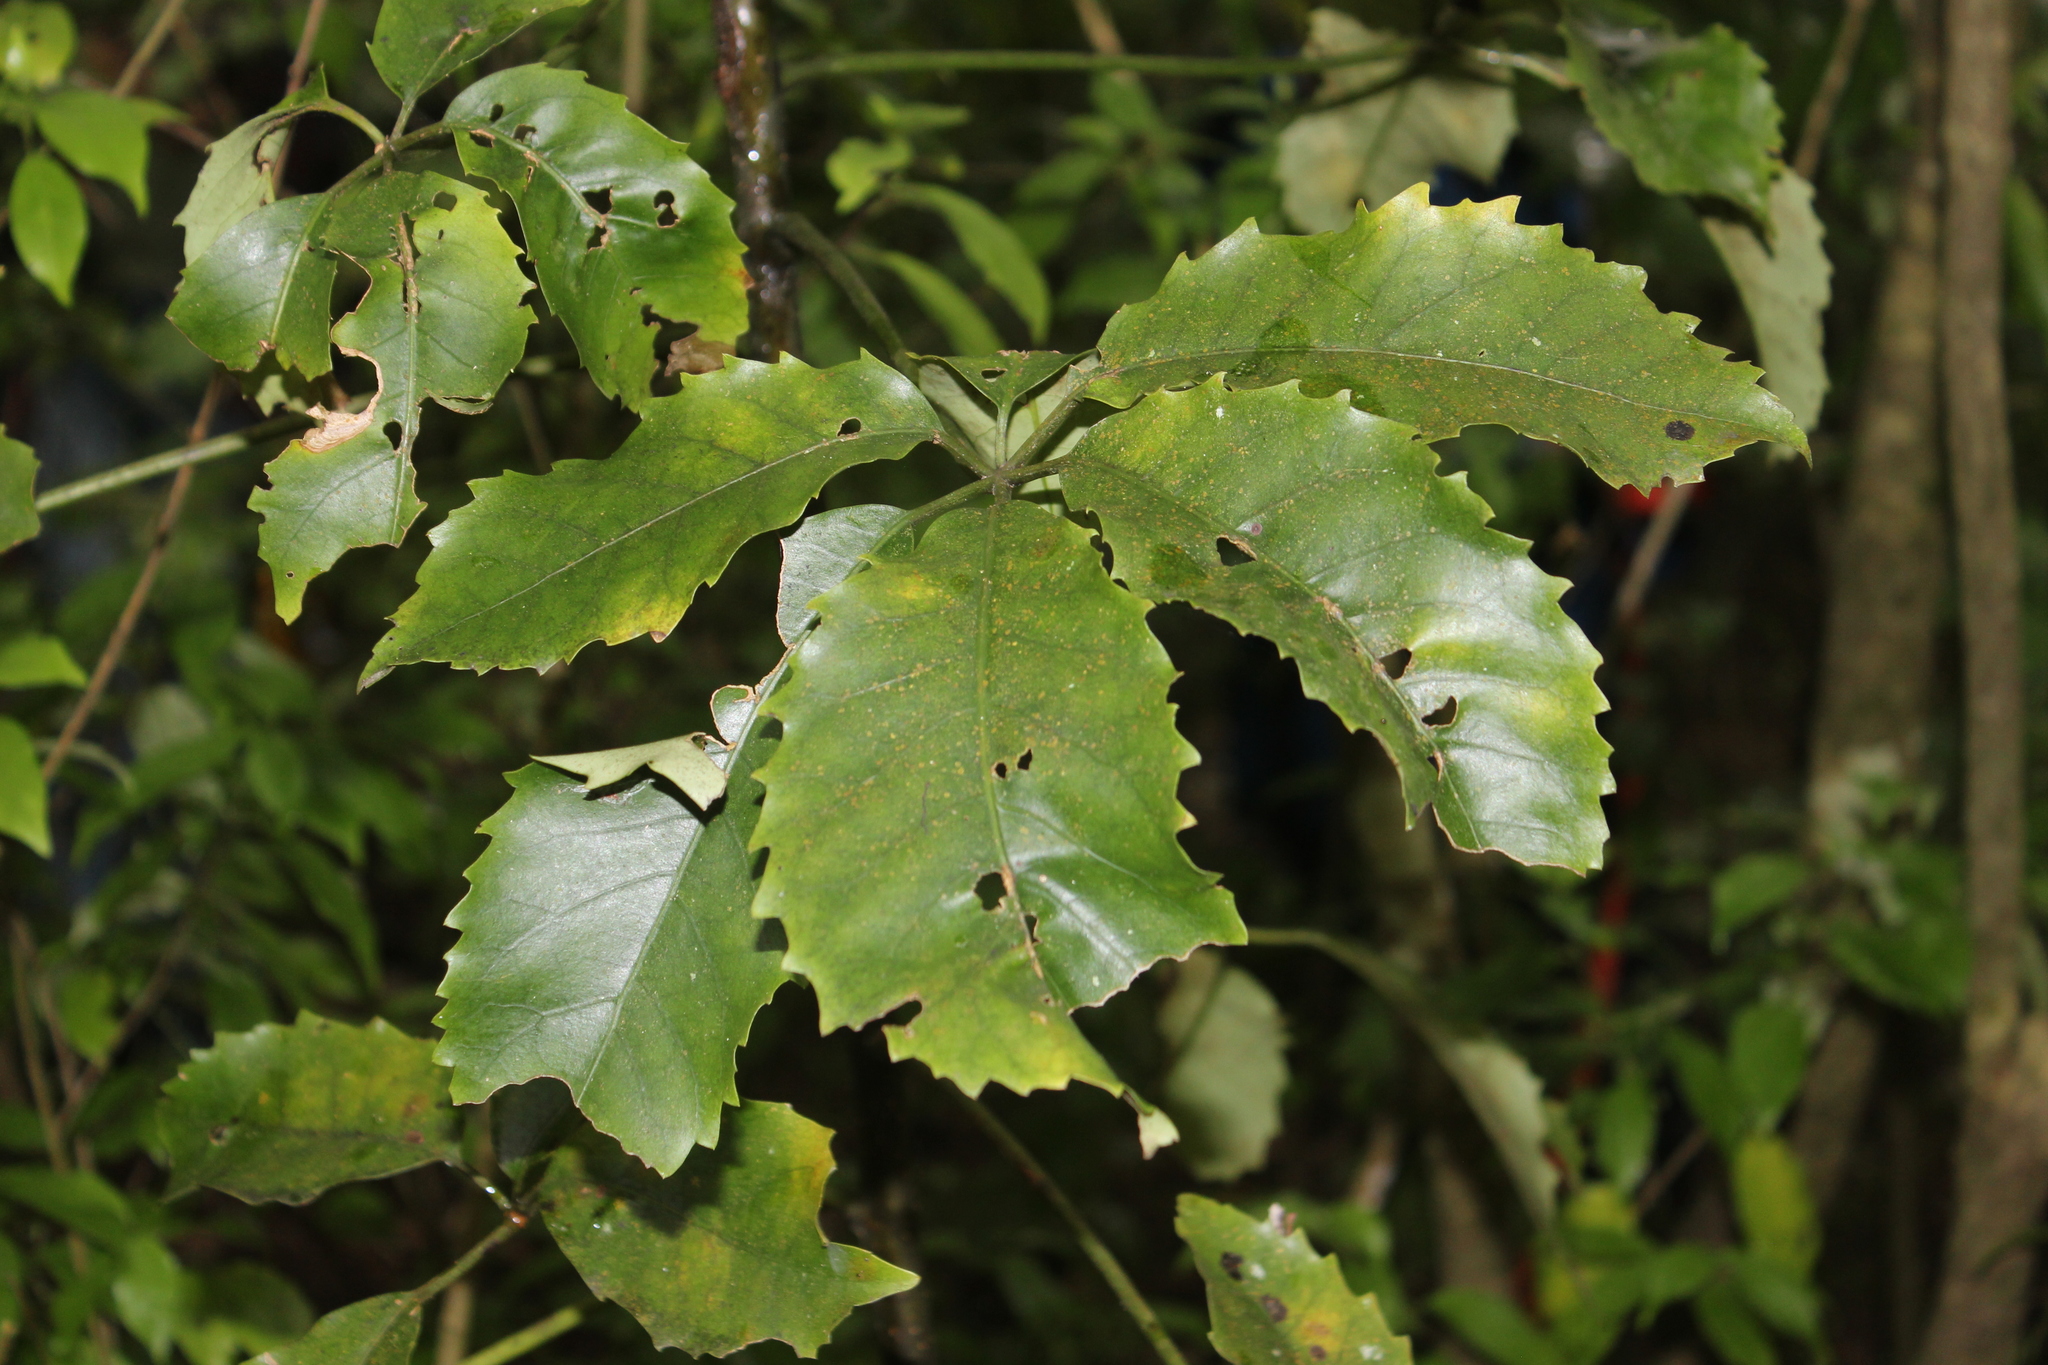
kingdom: Plantae
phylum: Tracheophyta
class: Magnoliopsida
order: Apiales
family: Araliaceae
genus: Neopanax
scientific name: Neopanax arboreus
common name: Five-fingers
